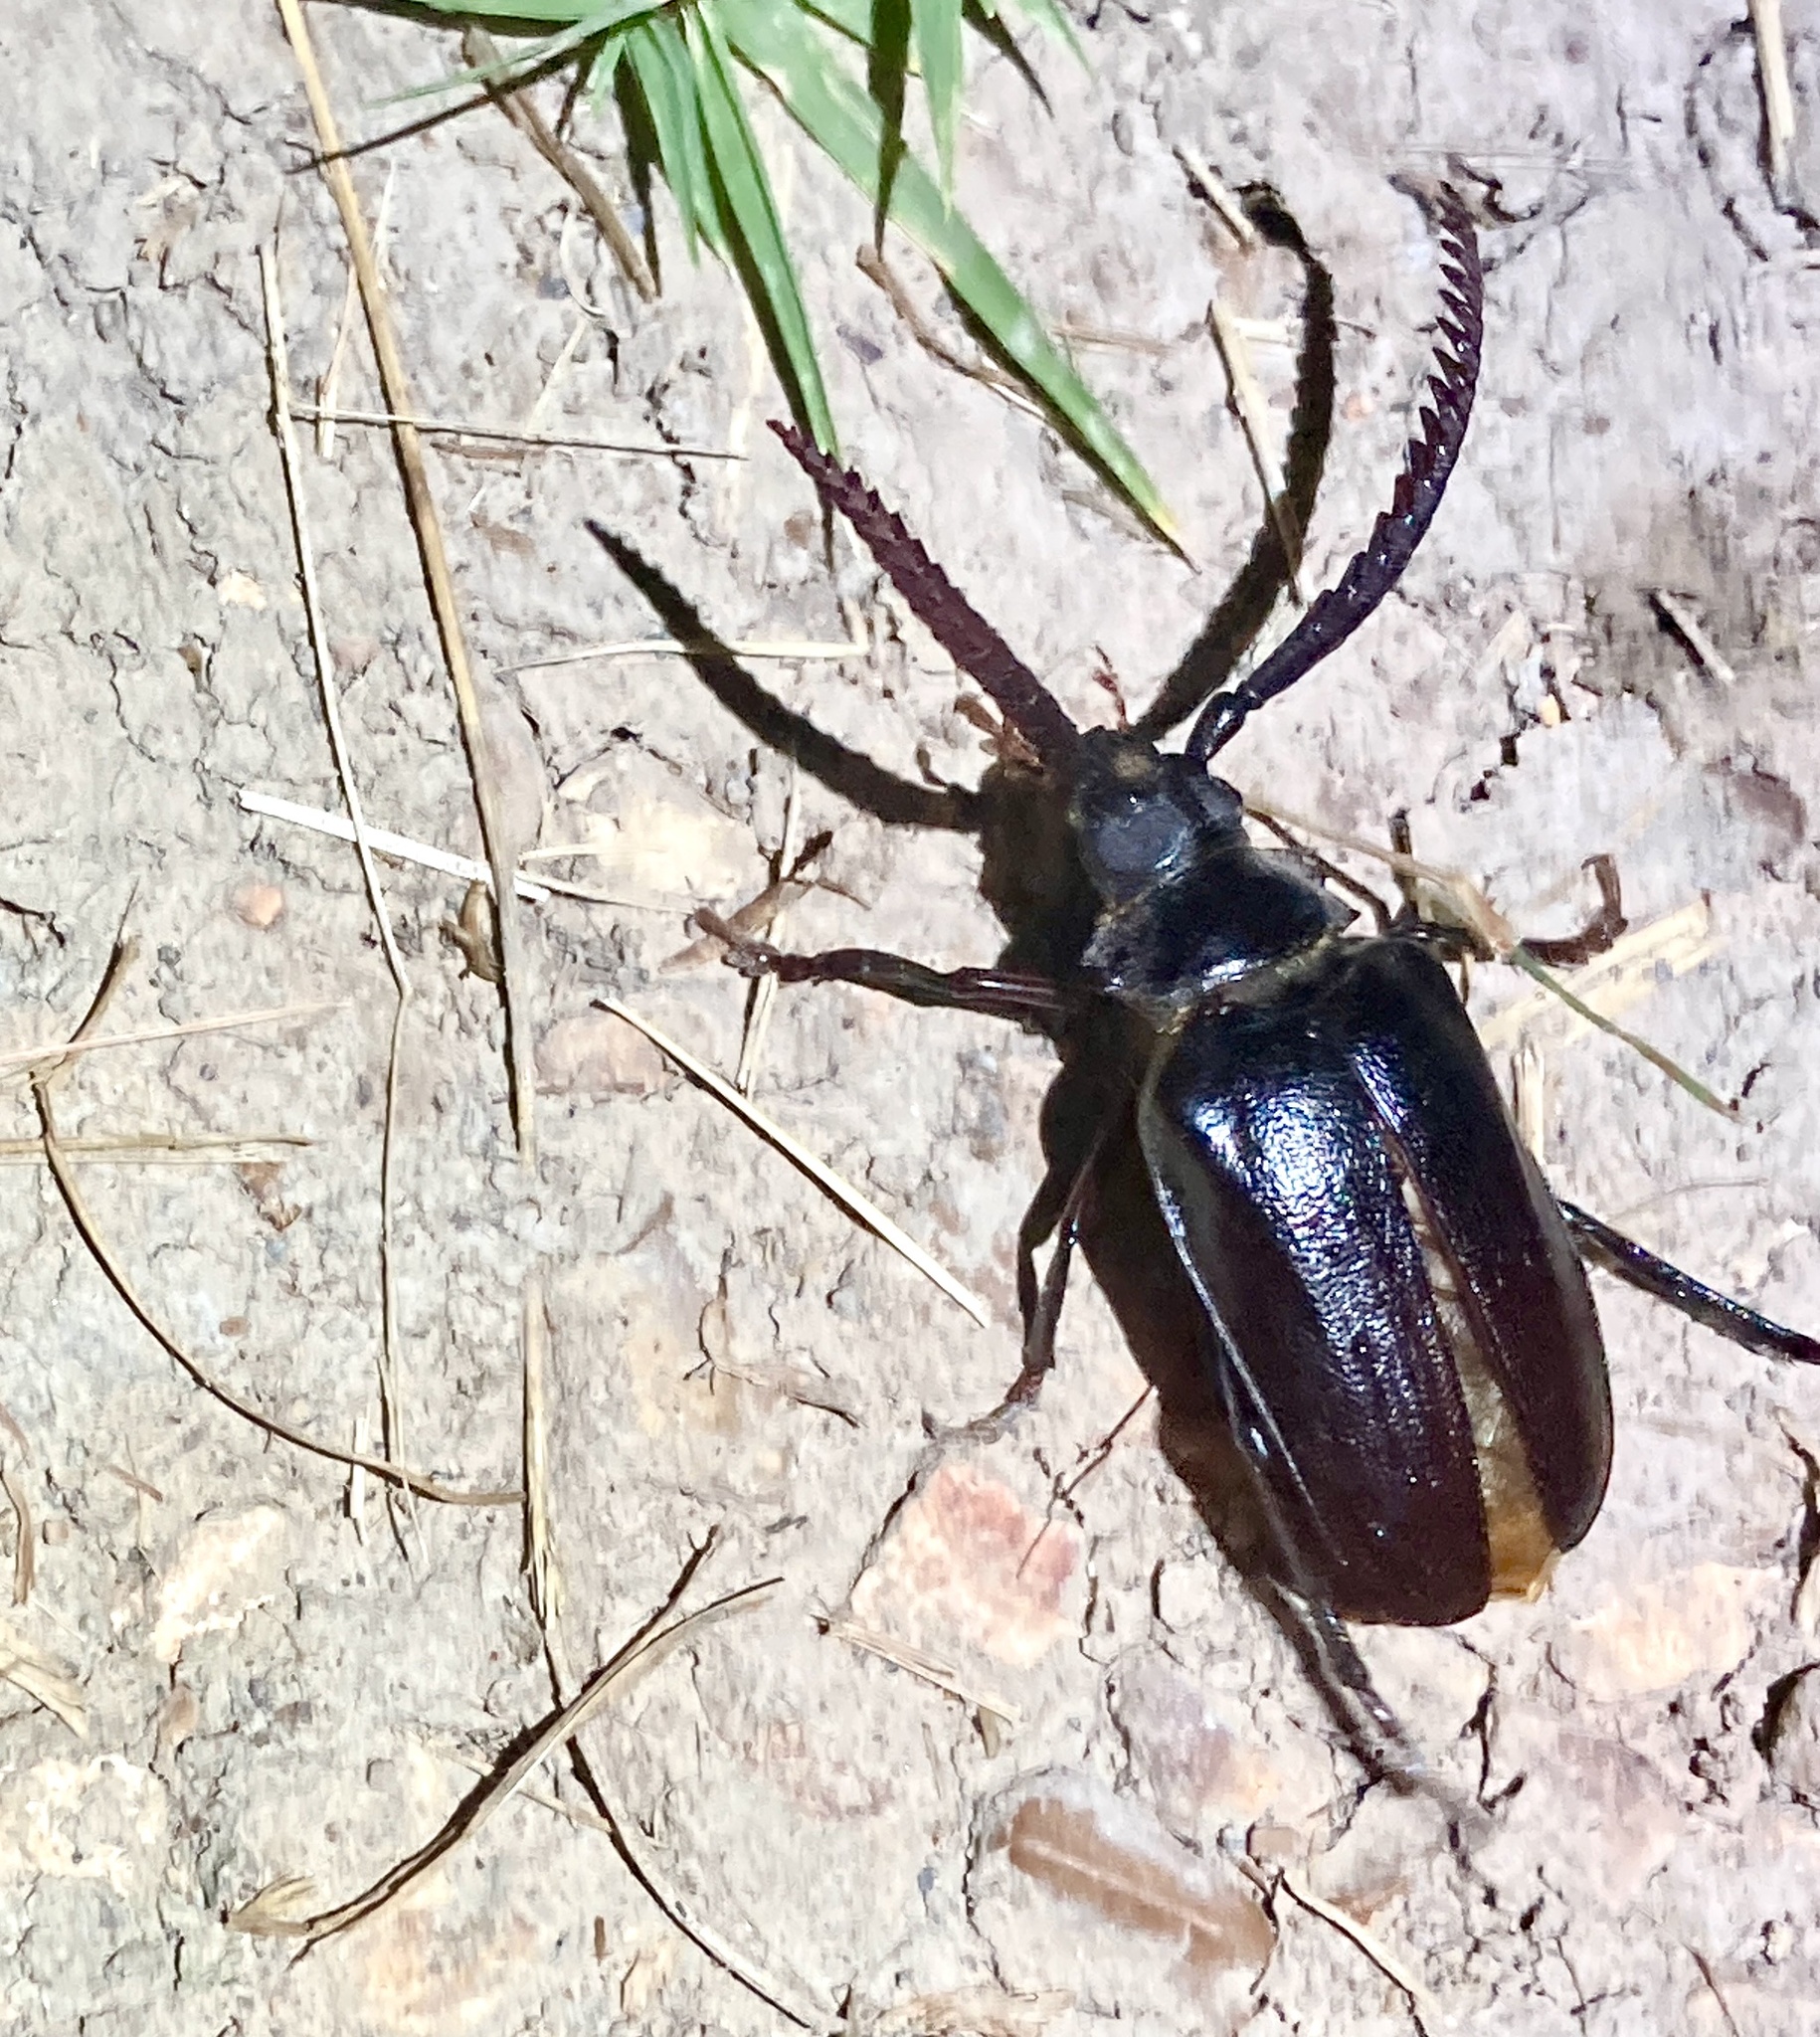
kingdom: Animalia
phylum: Arthropoda
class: Insecta
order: Coleoptera
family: Cerambycidae
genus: Prionus
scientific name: Prionus imbricornis
